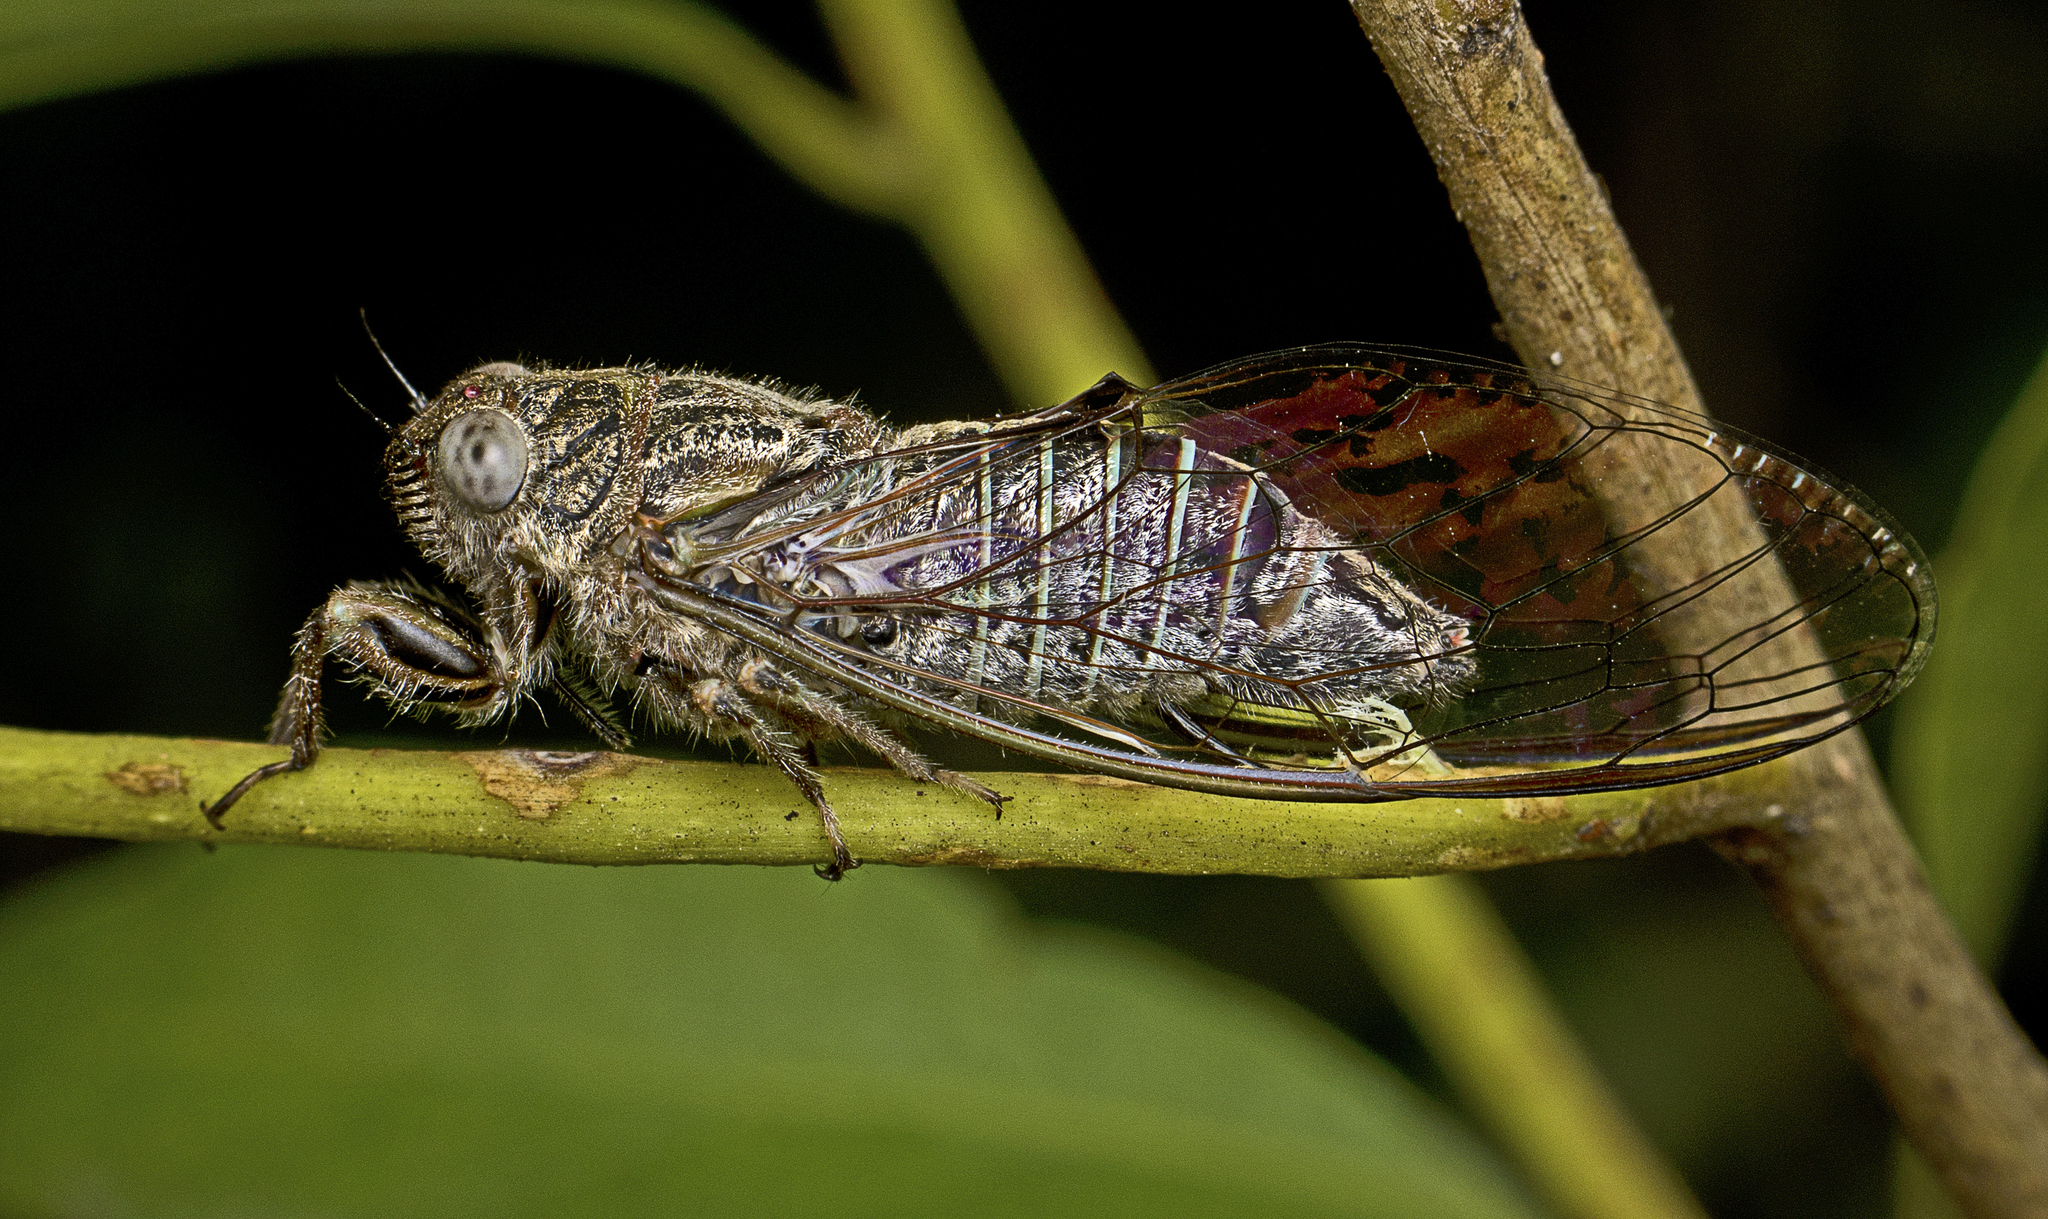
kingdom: Animalia
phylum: Arthropoda
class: Insecta
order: Hemiptera
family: Cicadidae
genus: Atrapsalta
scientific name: Atrapsalta corticina
